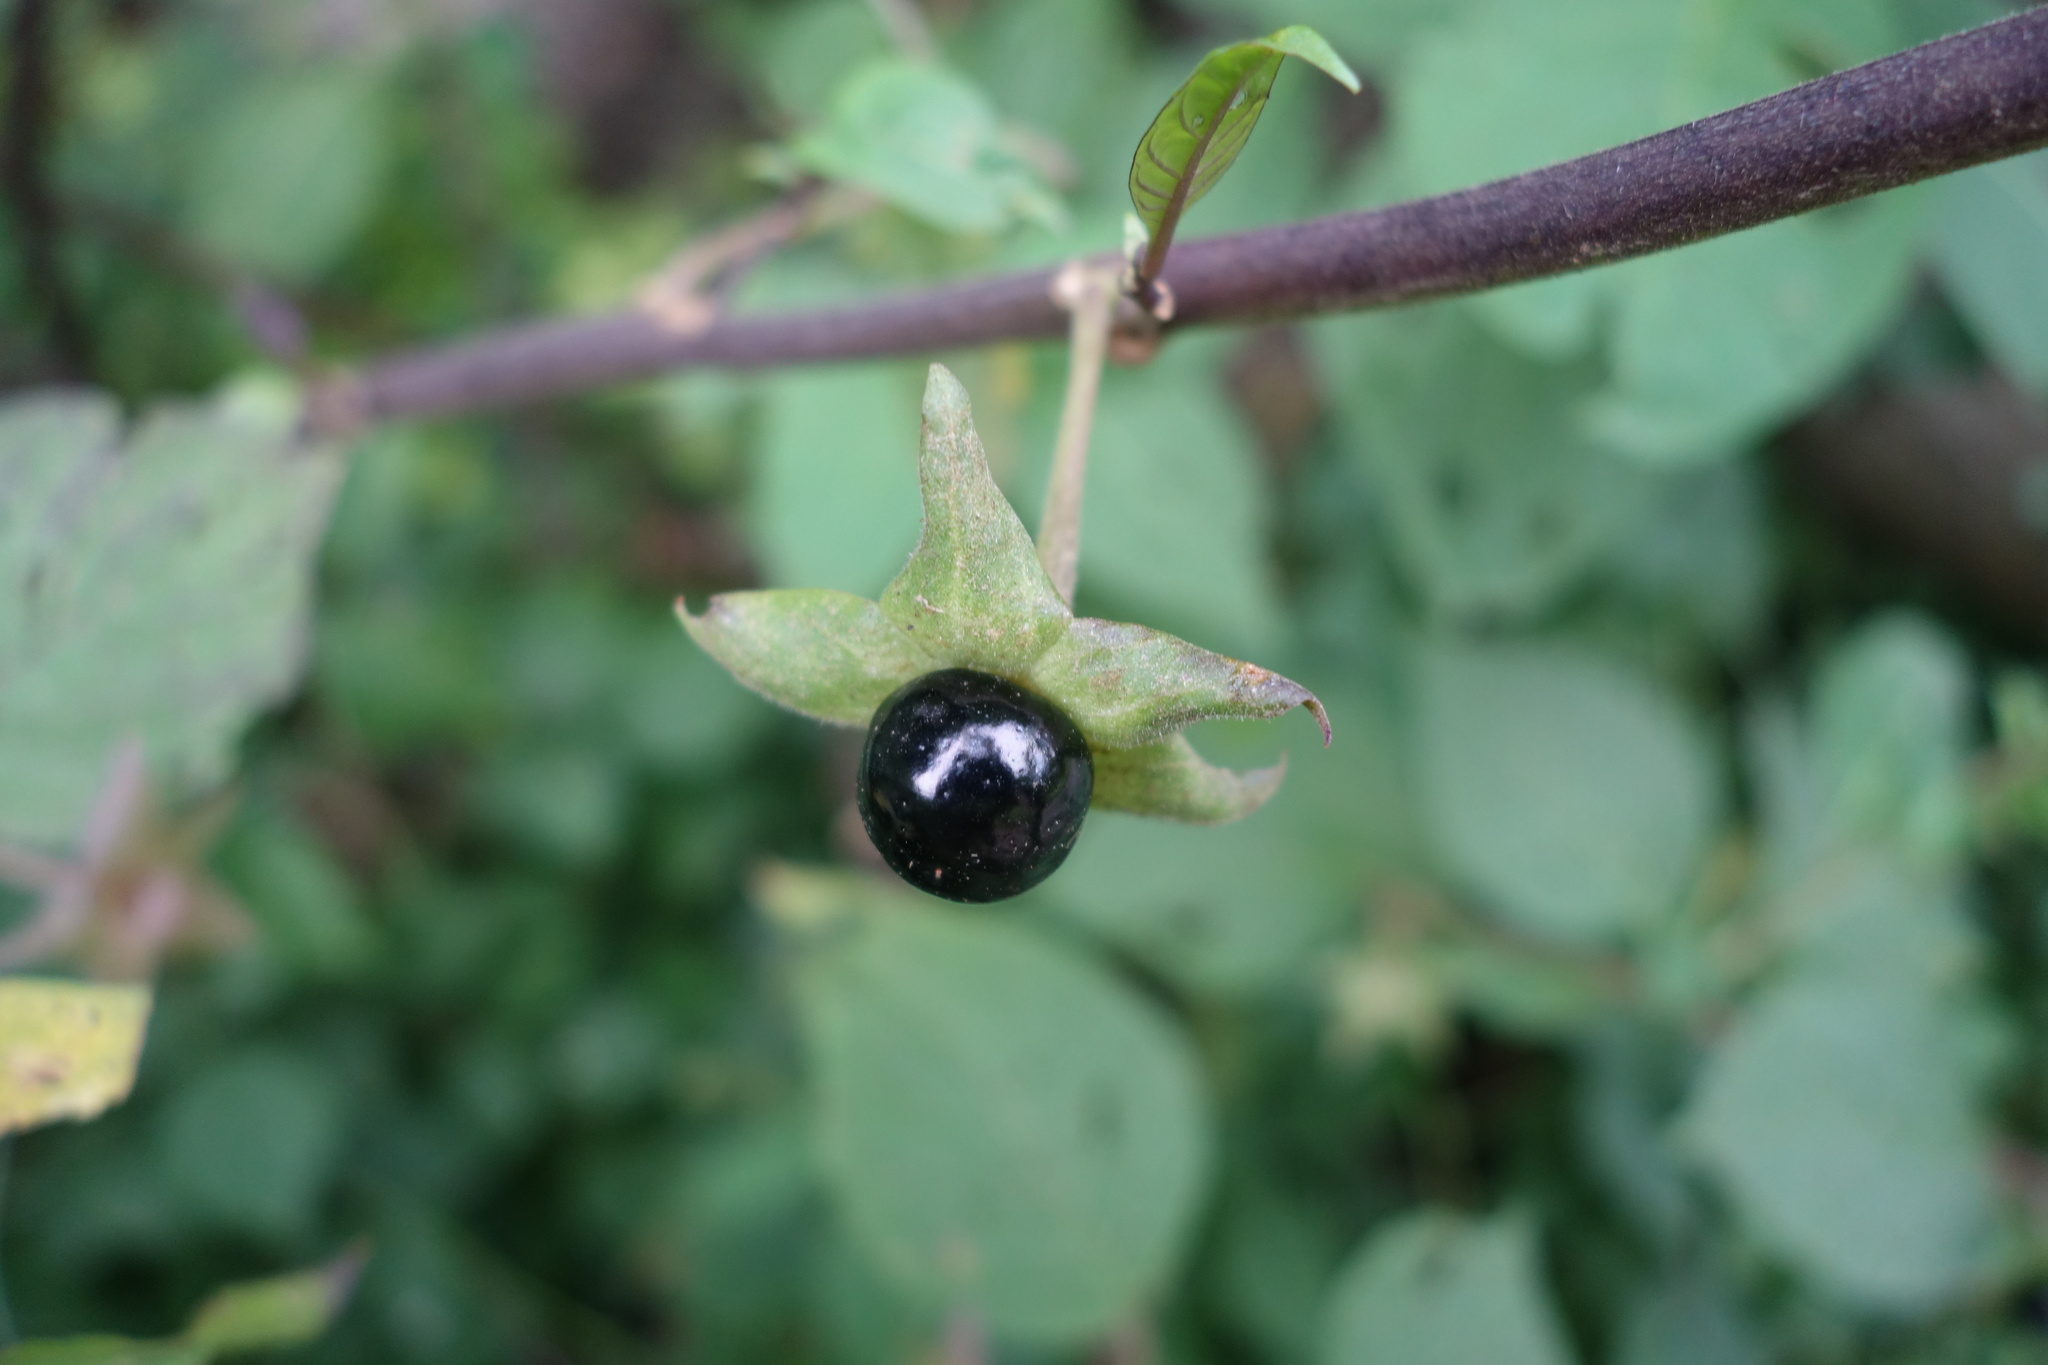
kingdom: Plantae
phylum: Tracheophyta
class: Magnoliopsida
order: Solanales
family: Solanaceae
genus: Atropa
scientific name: Atropa belladonna
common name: Deadly nightshade
